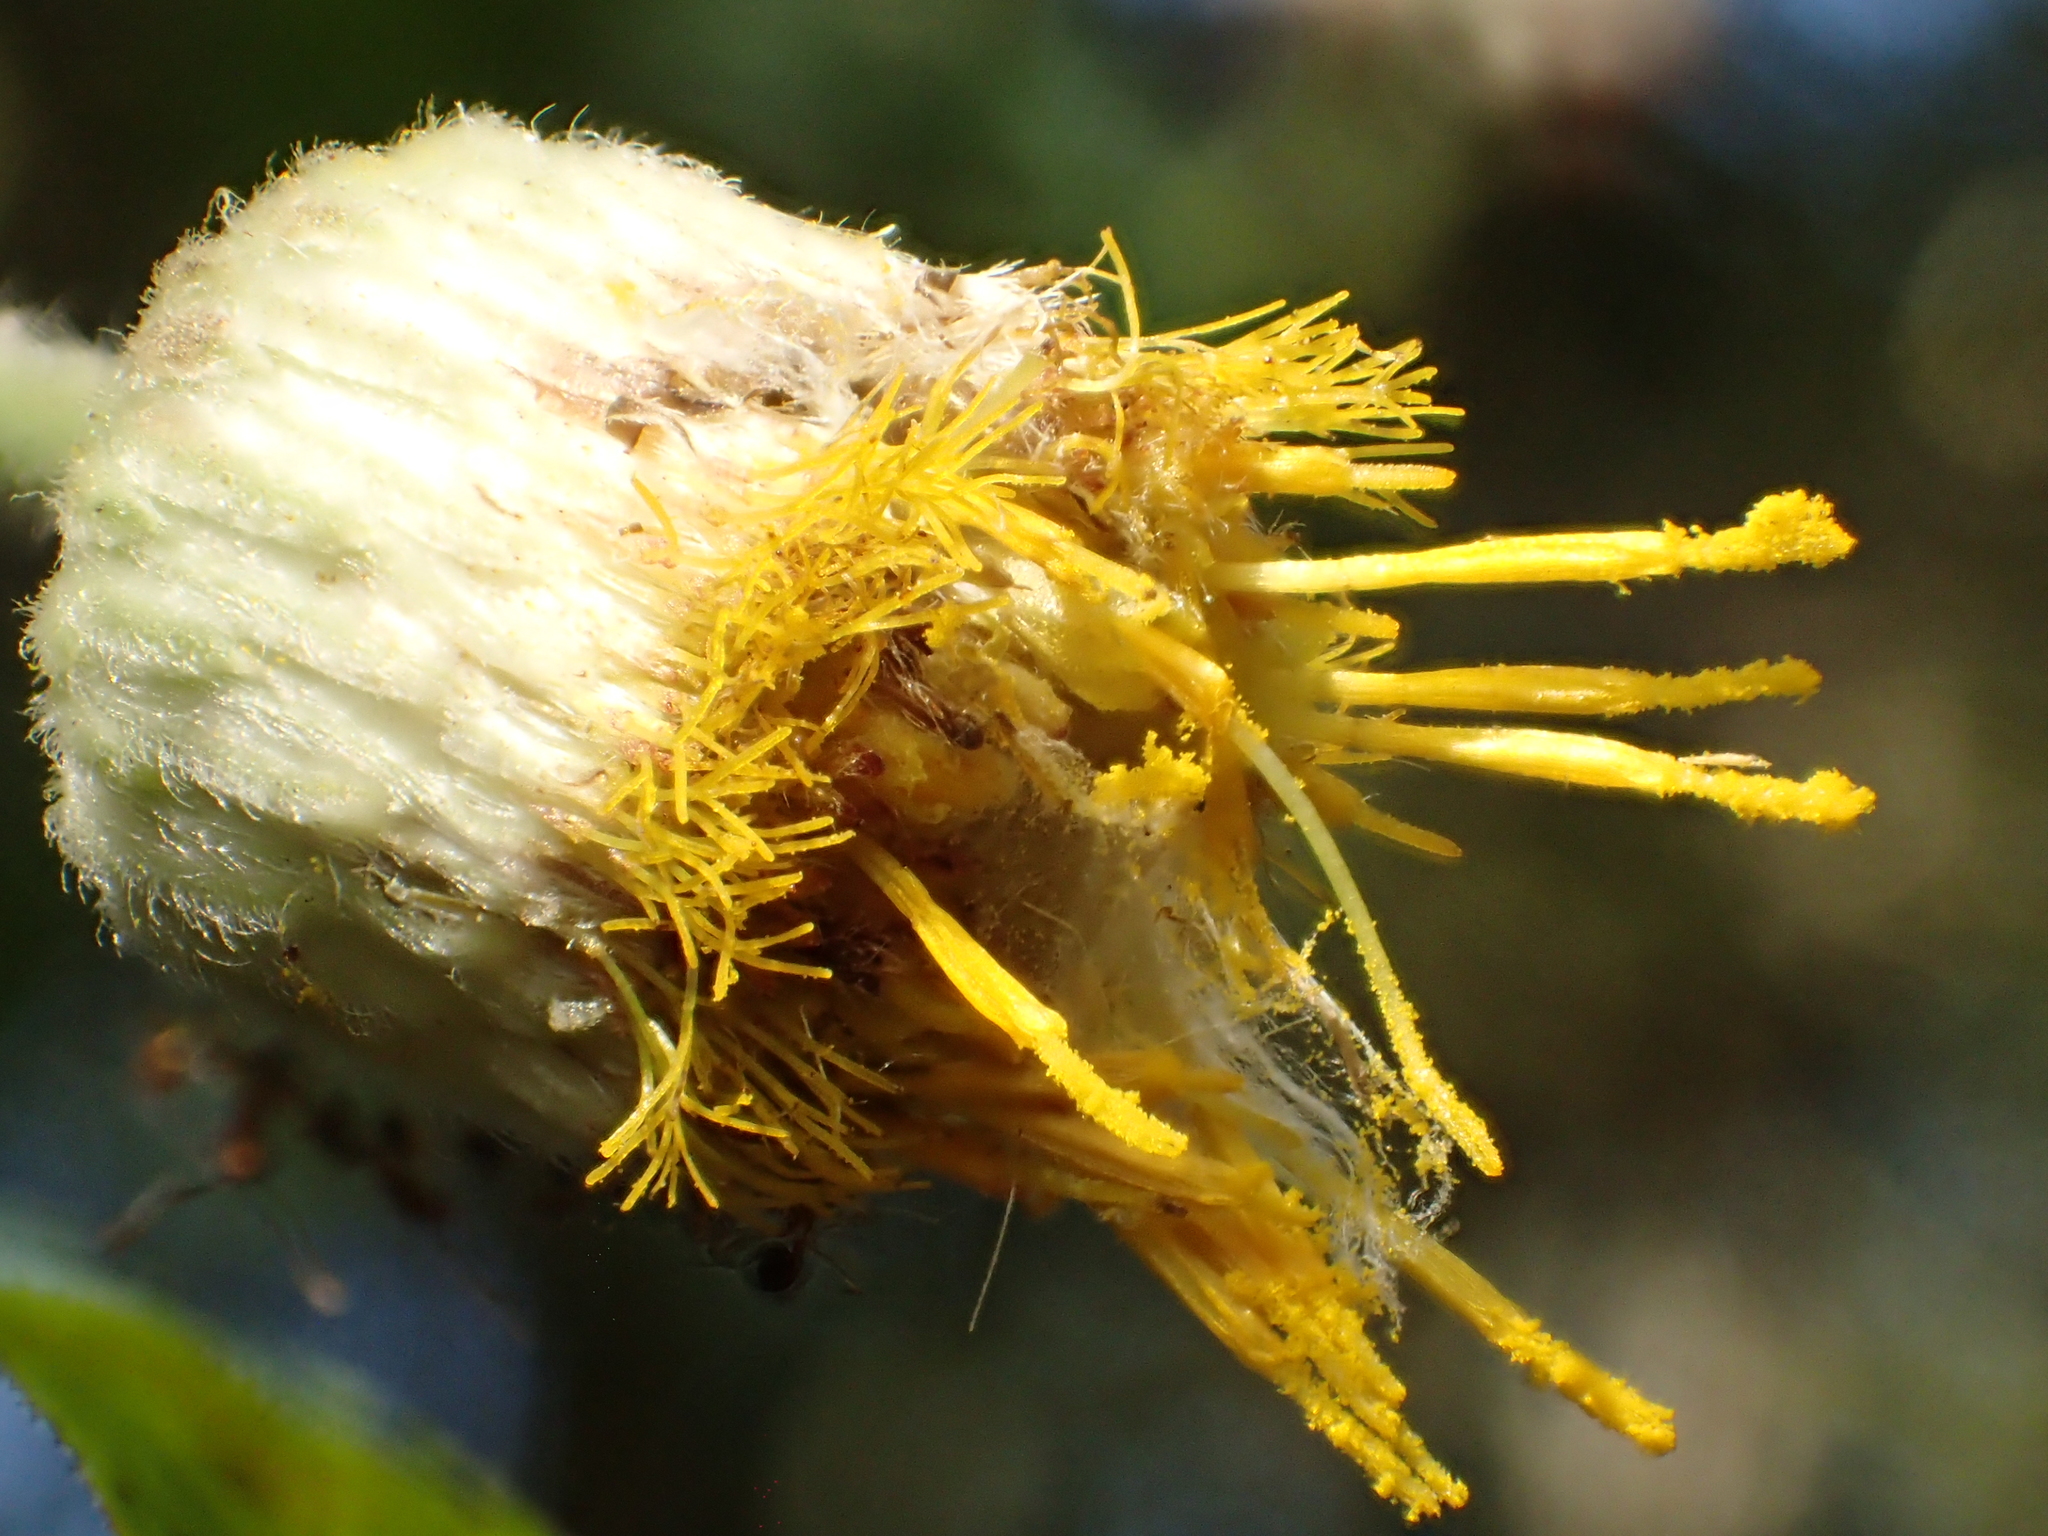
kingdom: Plantae
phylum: Tracheophyta
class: Magnoliopsida
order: Asterales
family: Asteraceae
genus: Blumea
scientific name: Blumea megacephala
